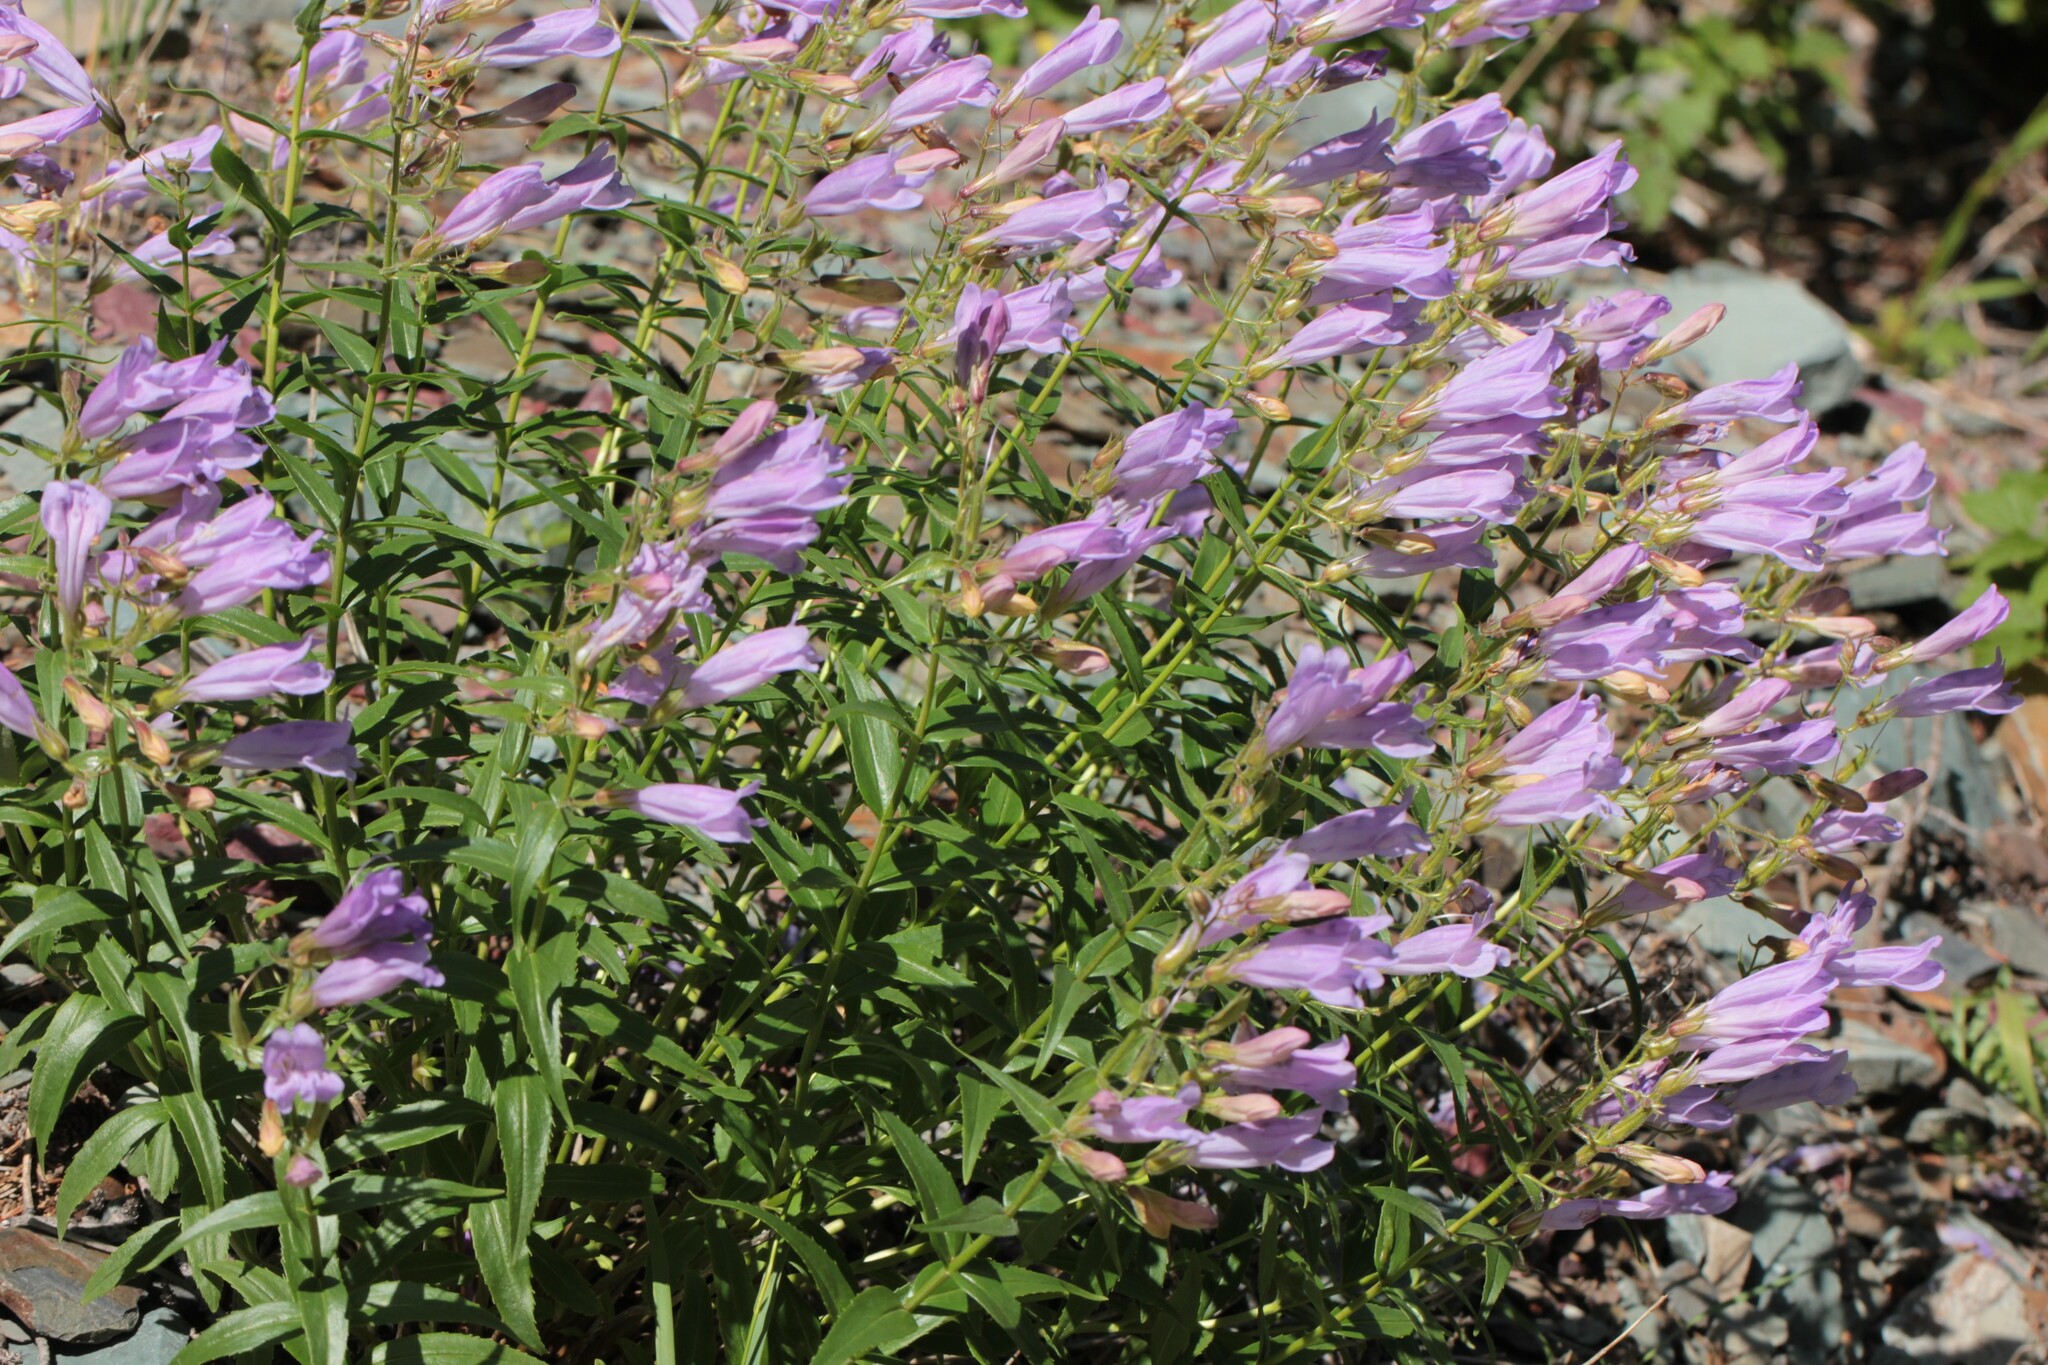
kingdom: Plantae
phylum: Tracheophyta
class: Magnoliopsida
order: Lamiales
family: Plantaginaceae
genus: Penstemon
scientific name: Penstemon lyalli
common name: Lyall's beardtongue
